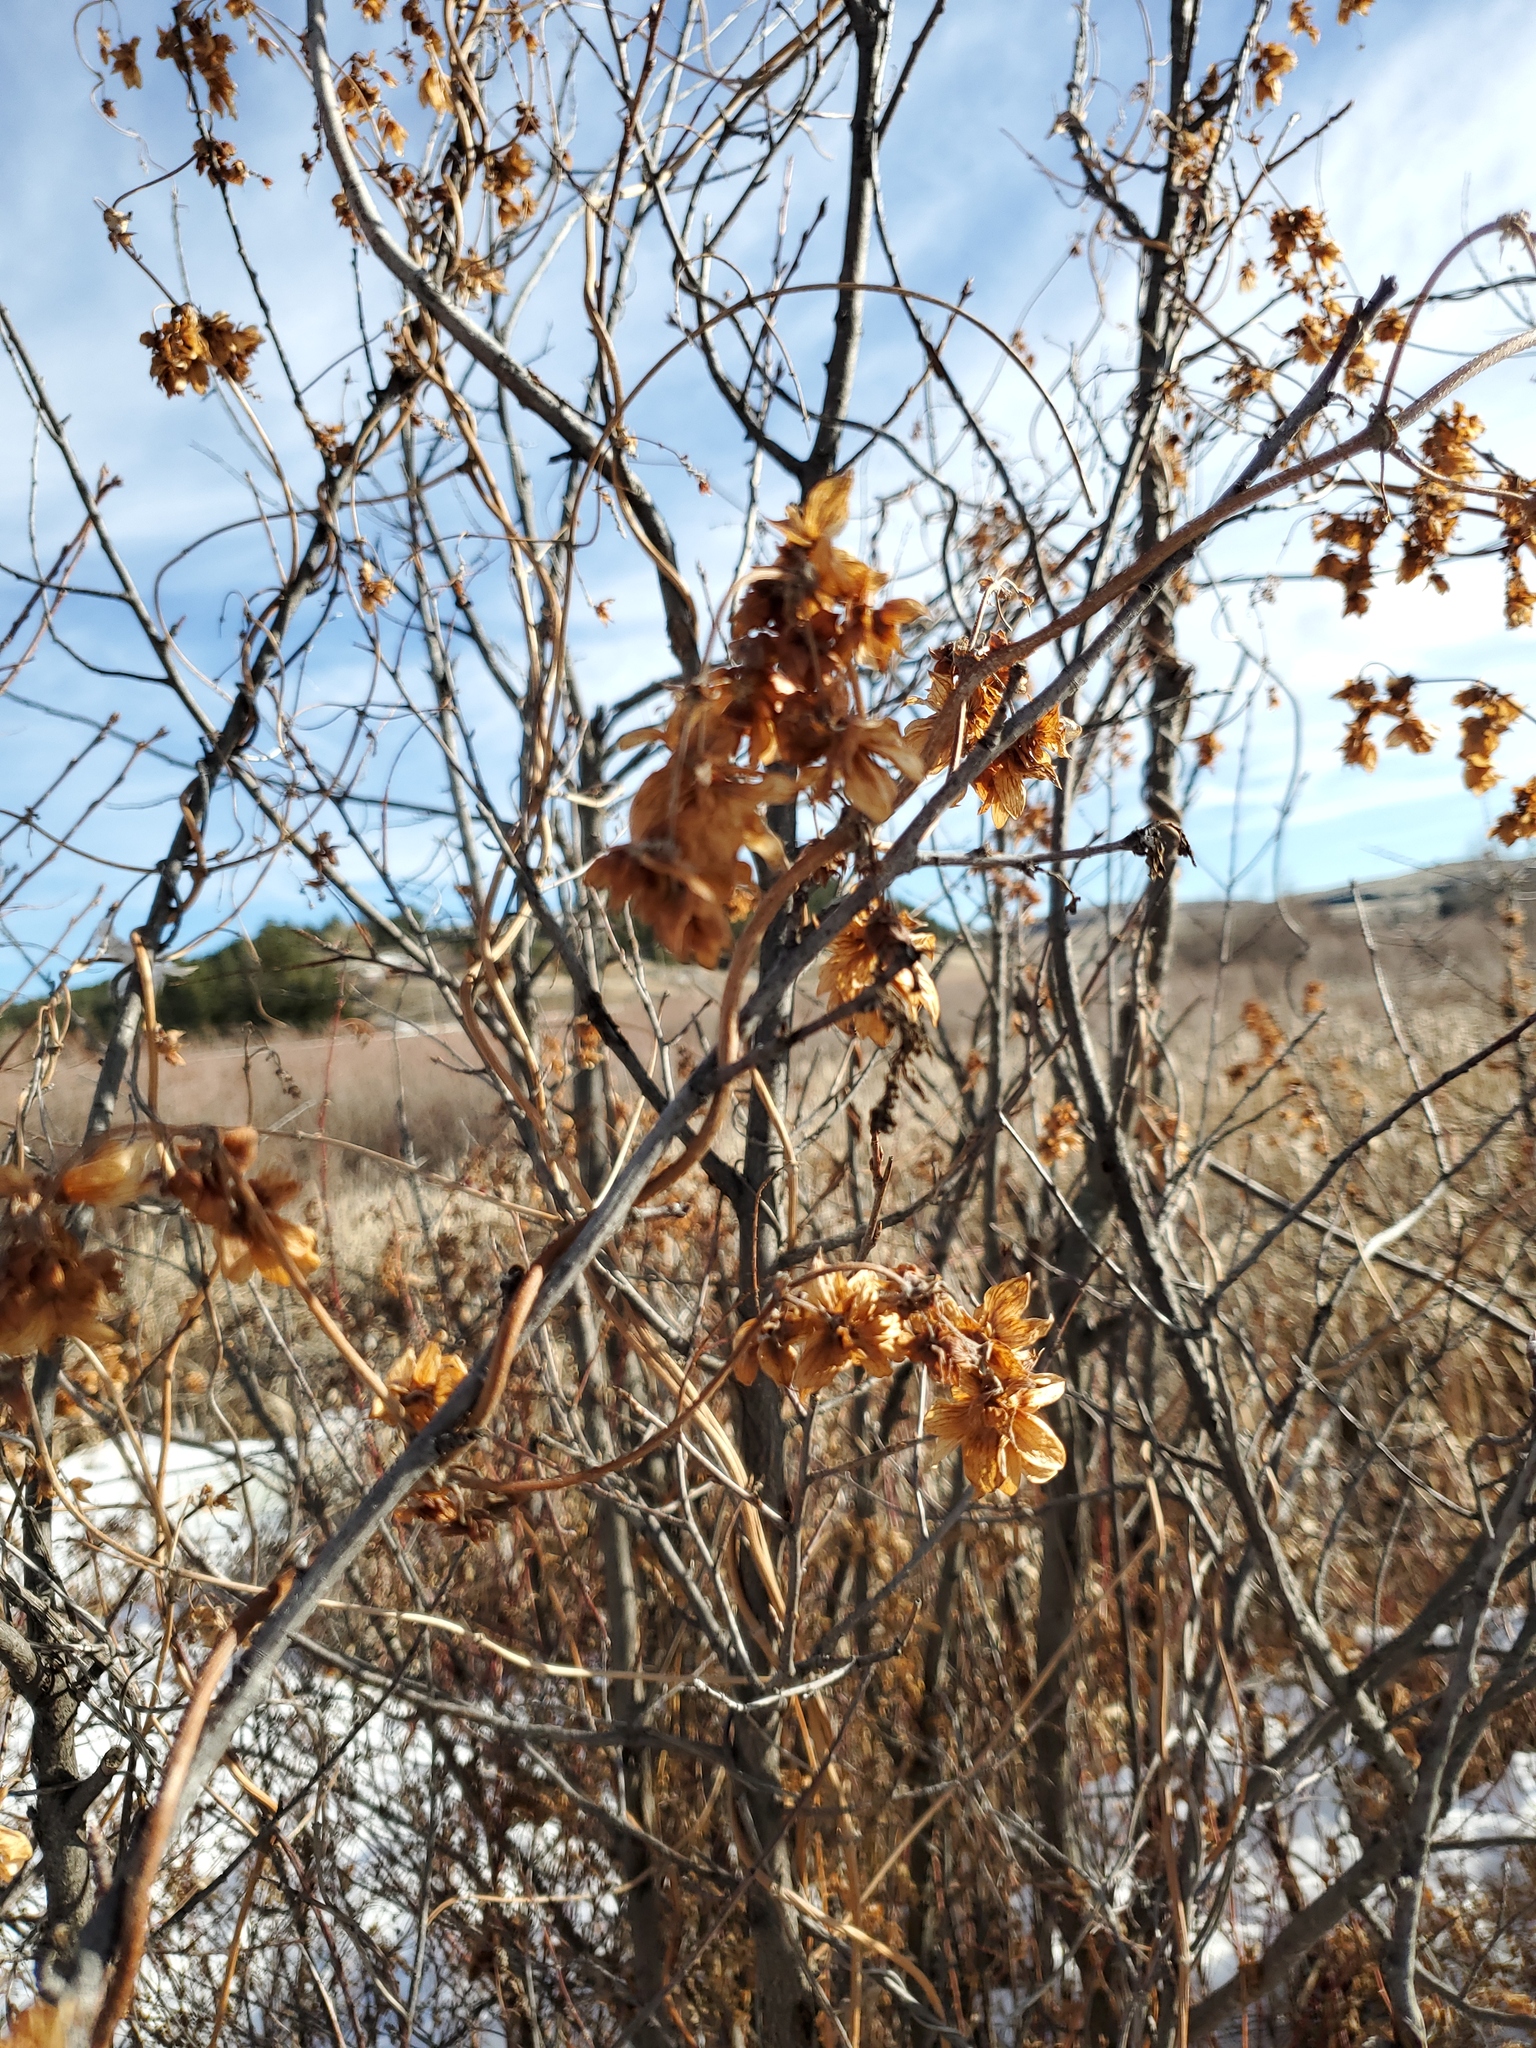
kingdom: Plantae
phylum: Tracheophyta
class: Magnoliopsida
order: Rosales
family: Cannabaceae
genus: Humulus
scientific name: Humulus lupulus
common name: Hop
